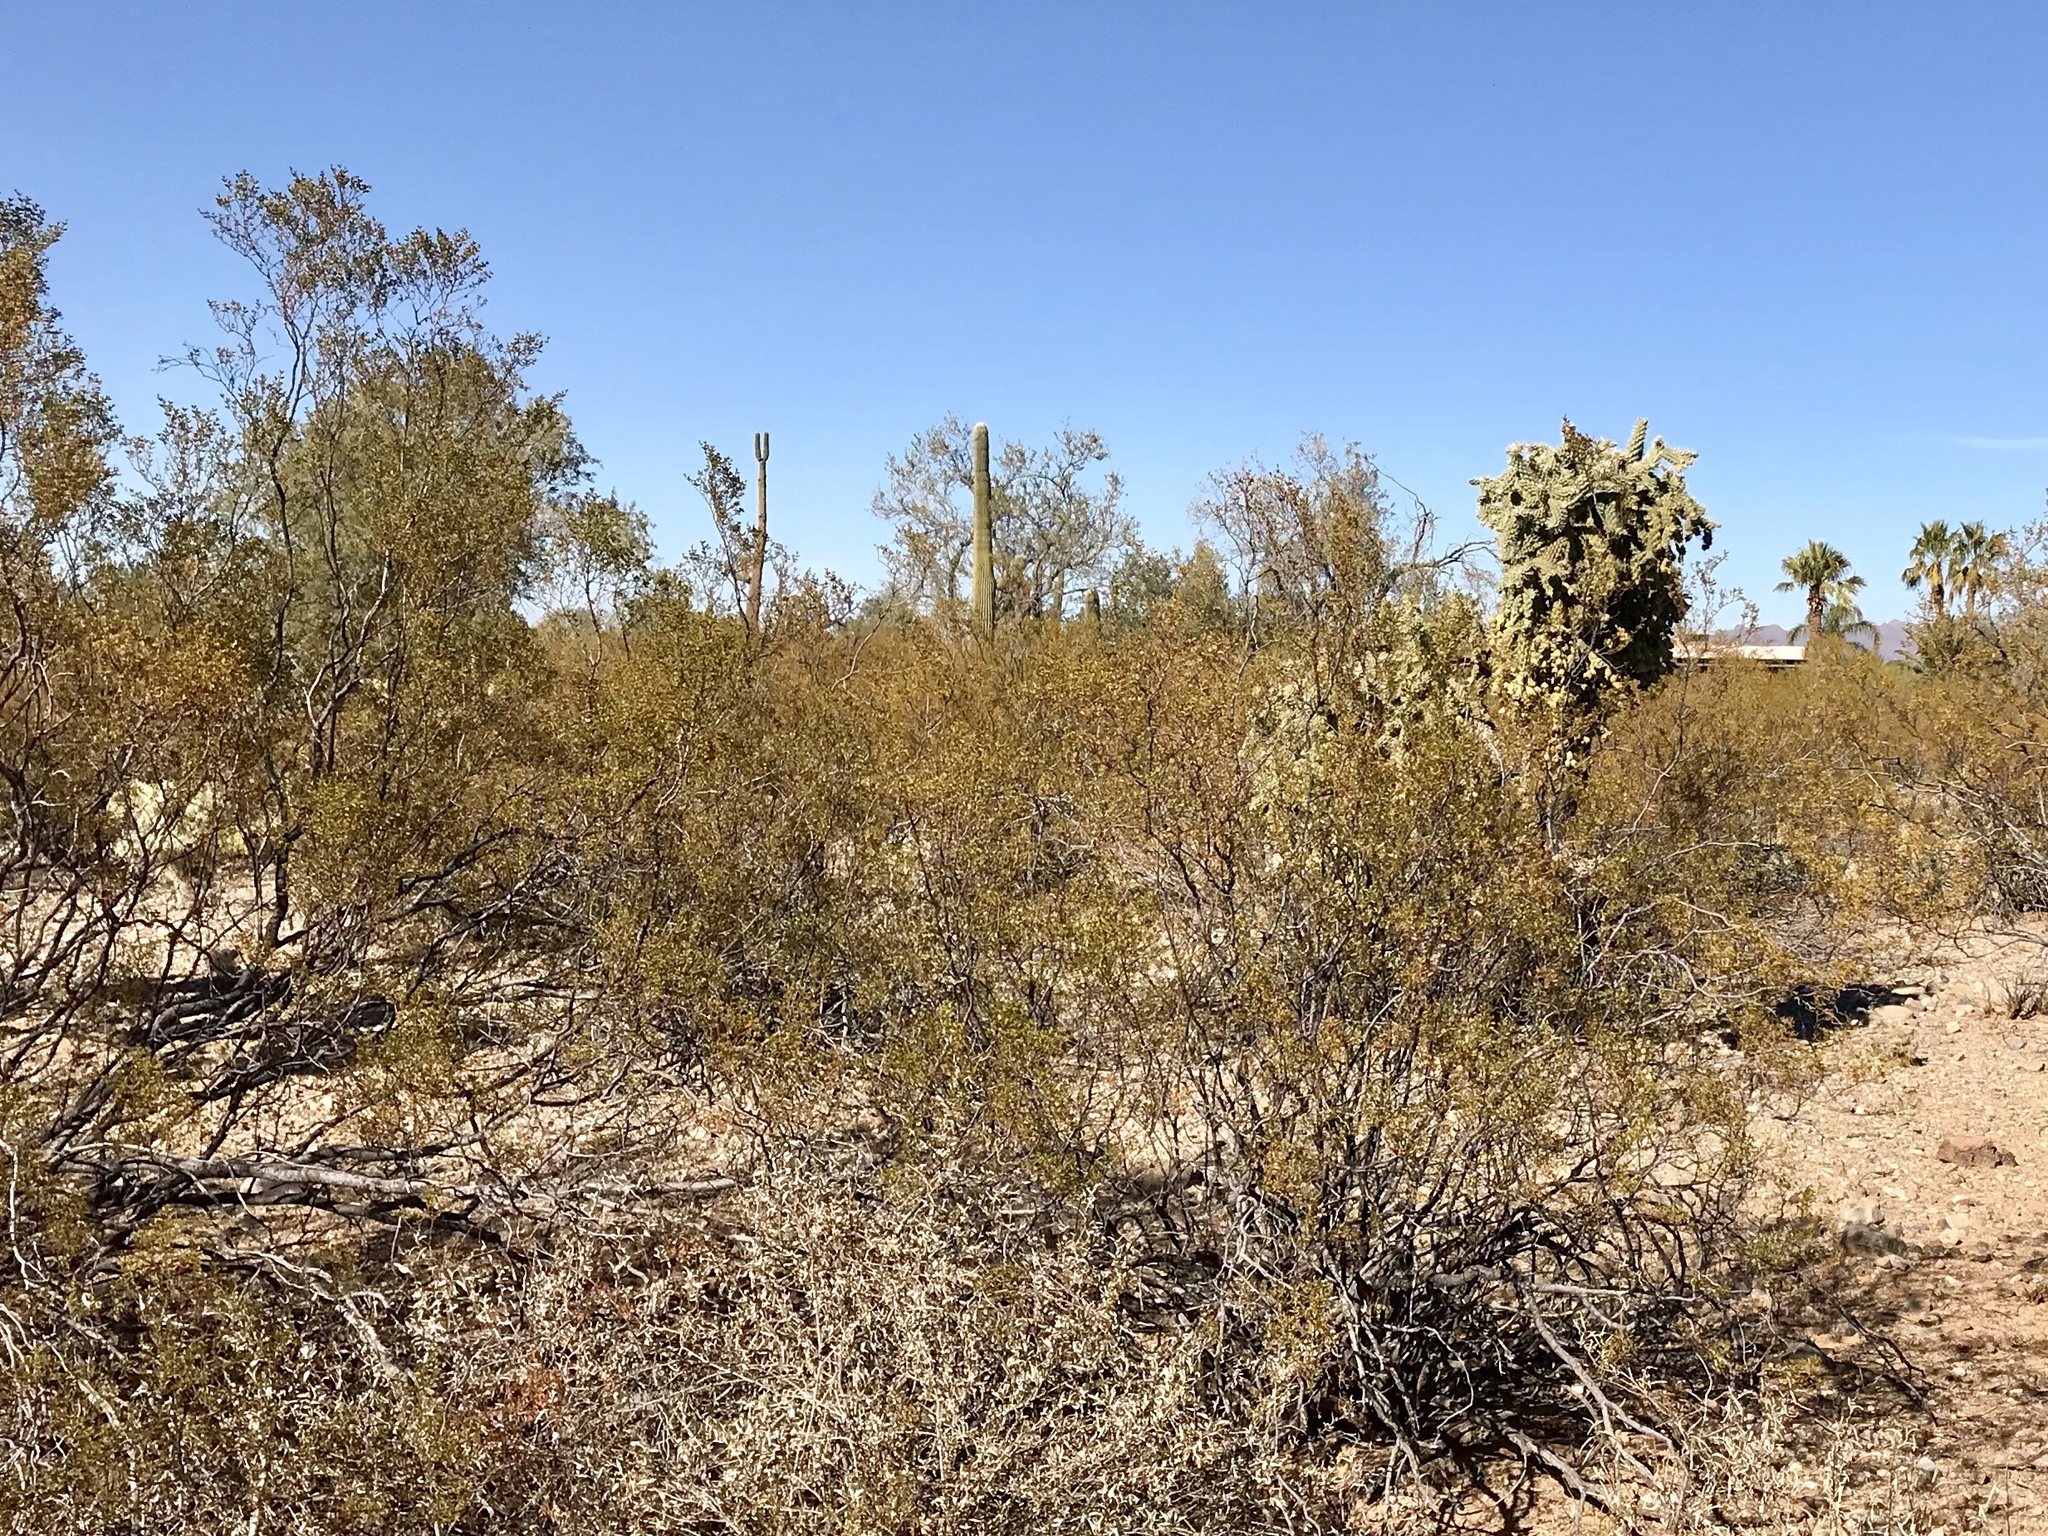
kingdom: Plantae
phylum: Tracheophyta
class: Magnoliopsida
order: Zygophyllales
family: Zygophyllaceae
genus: Larrea
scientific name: Larrea tridentata
